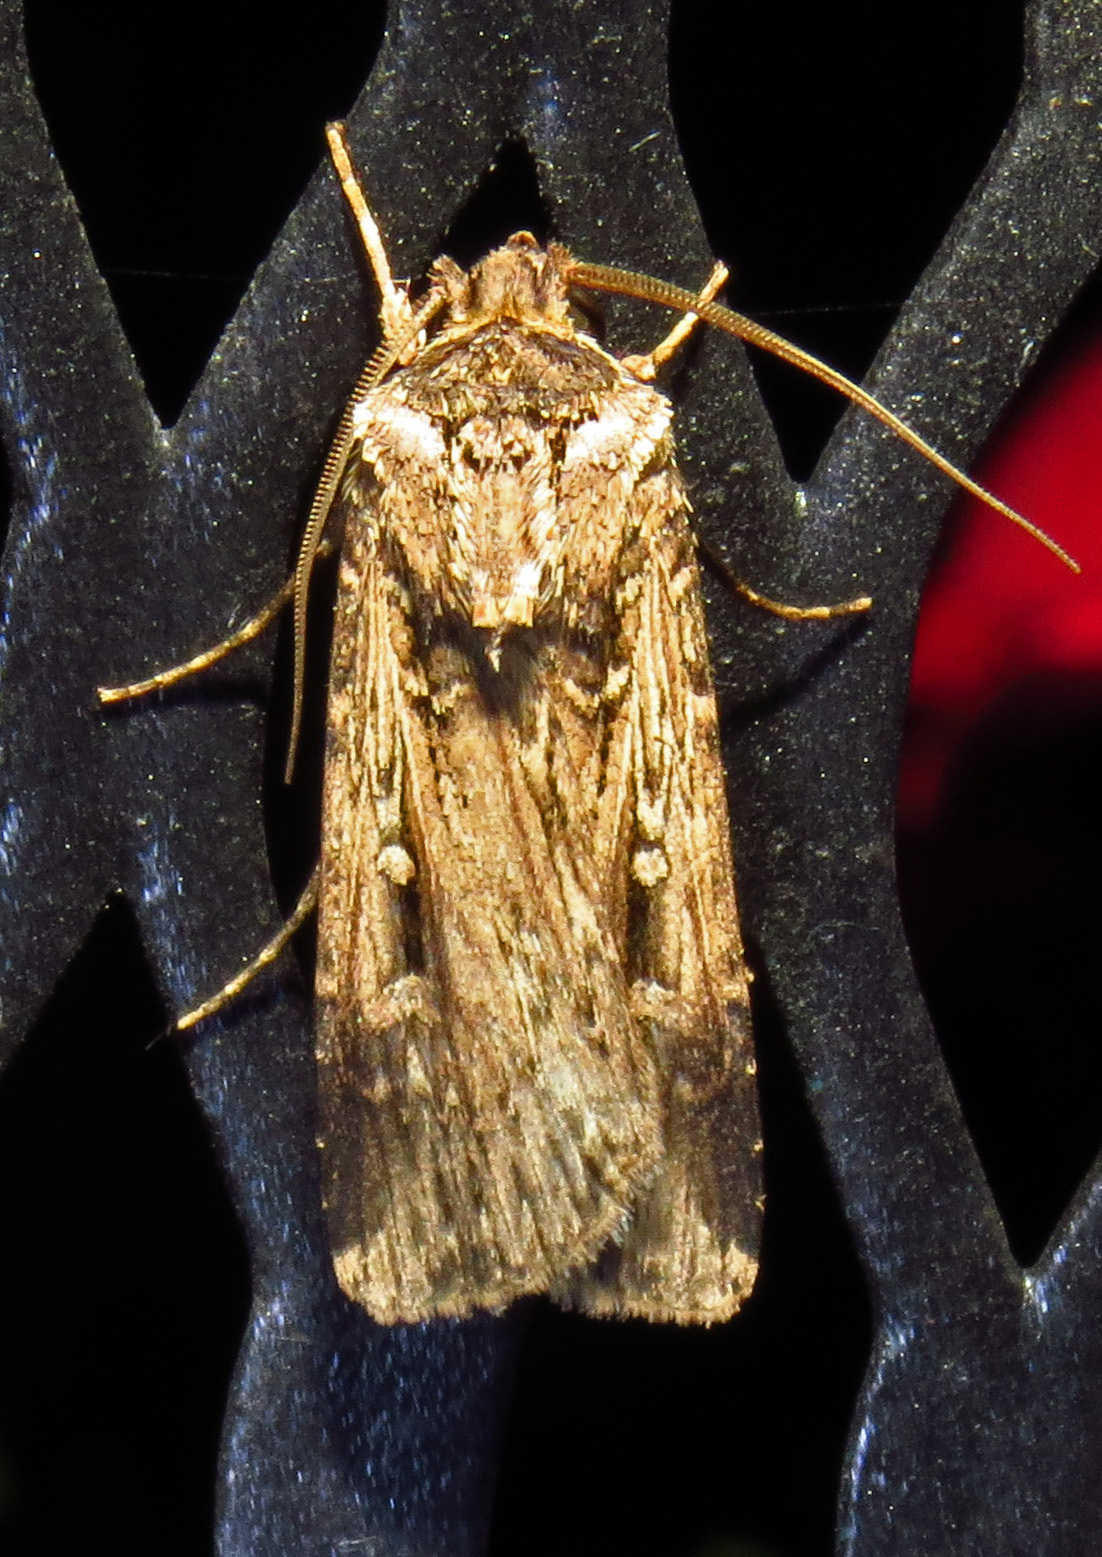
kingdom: Animalia
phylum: Arthropoda
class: Insecta
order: Lepidoptera
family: Noctuidae
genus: Feltia
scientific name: Feltia subterranea
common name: Granulate cutworm
